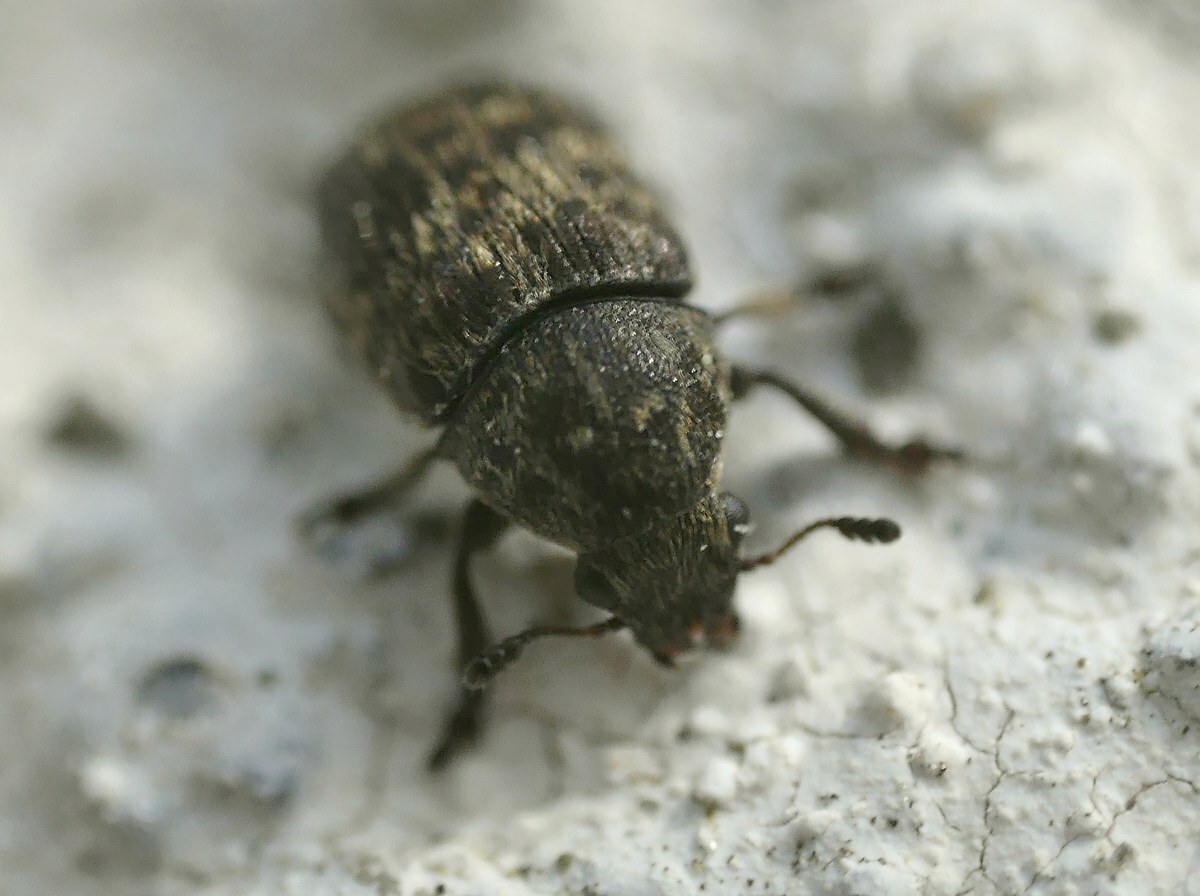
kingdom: Animalia
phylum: Arthropoda
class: Insecta
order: Coleoptera
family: Anthribidae
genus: Anthribus
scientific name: Anthribus nebulosus
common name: Fungus weevil
